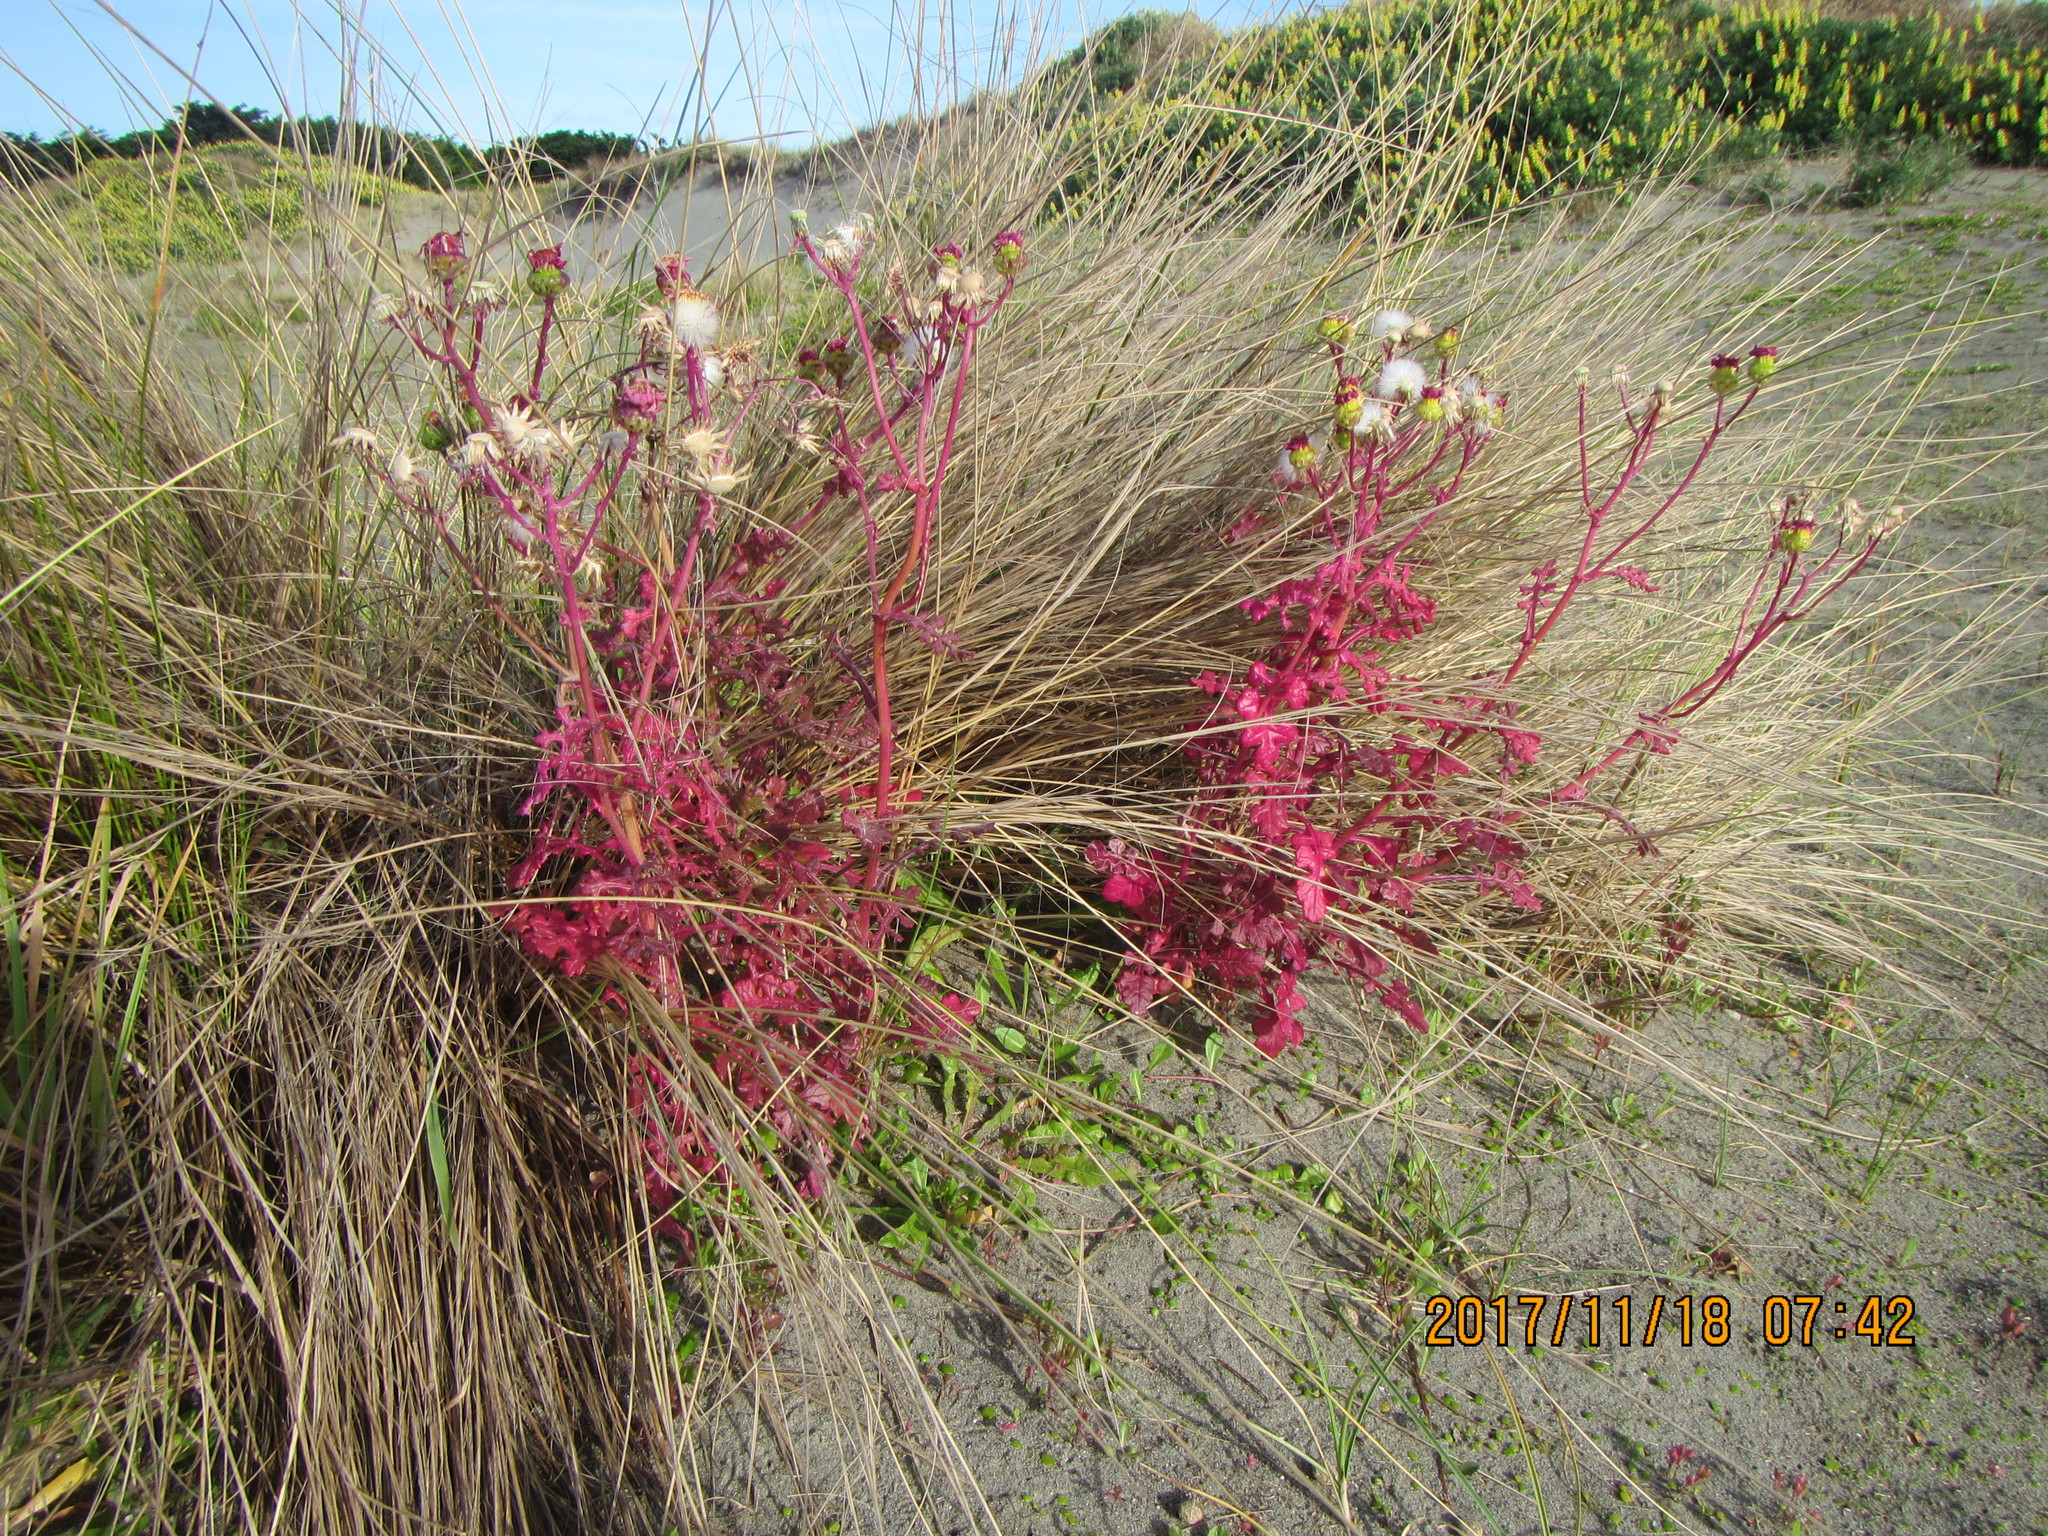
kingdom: Plantae
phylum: Tracheophyta
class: Magnoliopsida
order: Asterales
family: Asteraceae
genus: Senecio
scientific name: Senecio elegans
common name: Purple groundsel
